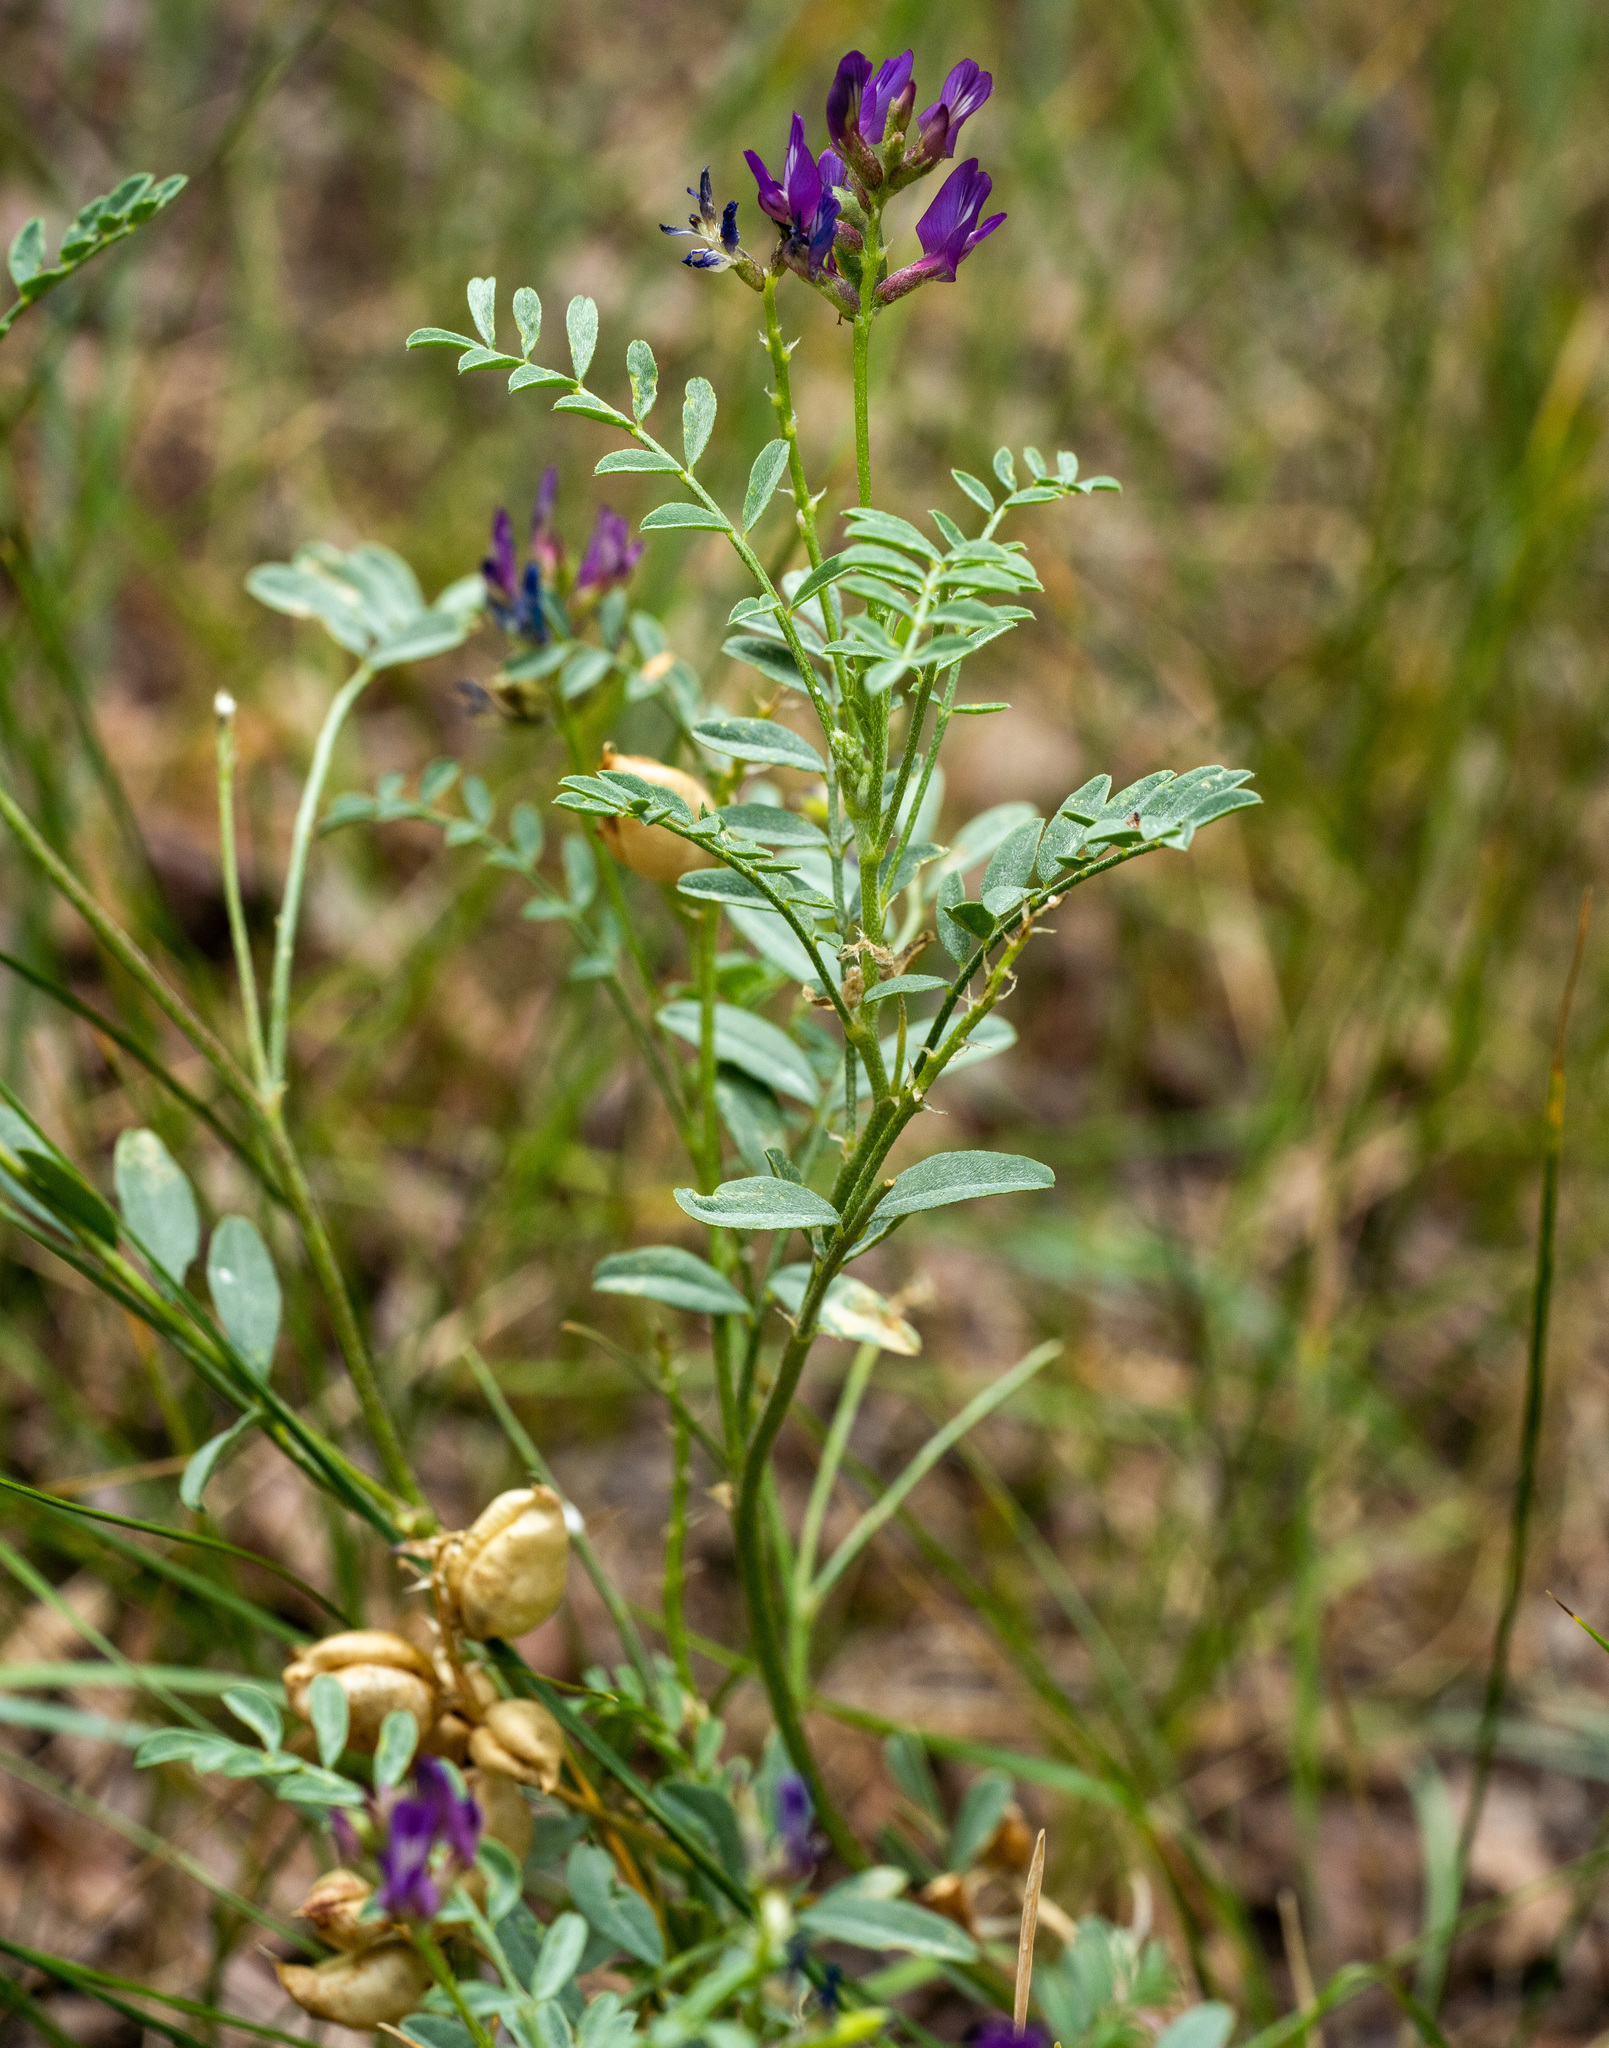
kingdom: Plantae
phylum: Tracheophyta
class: Magnoliopsida
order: Fabales
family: Fabaceae
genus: Astragalus
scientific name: Astragalus lentiginosus
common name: Freckled milkvetch
